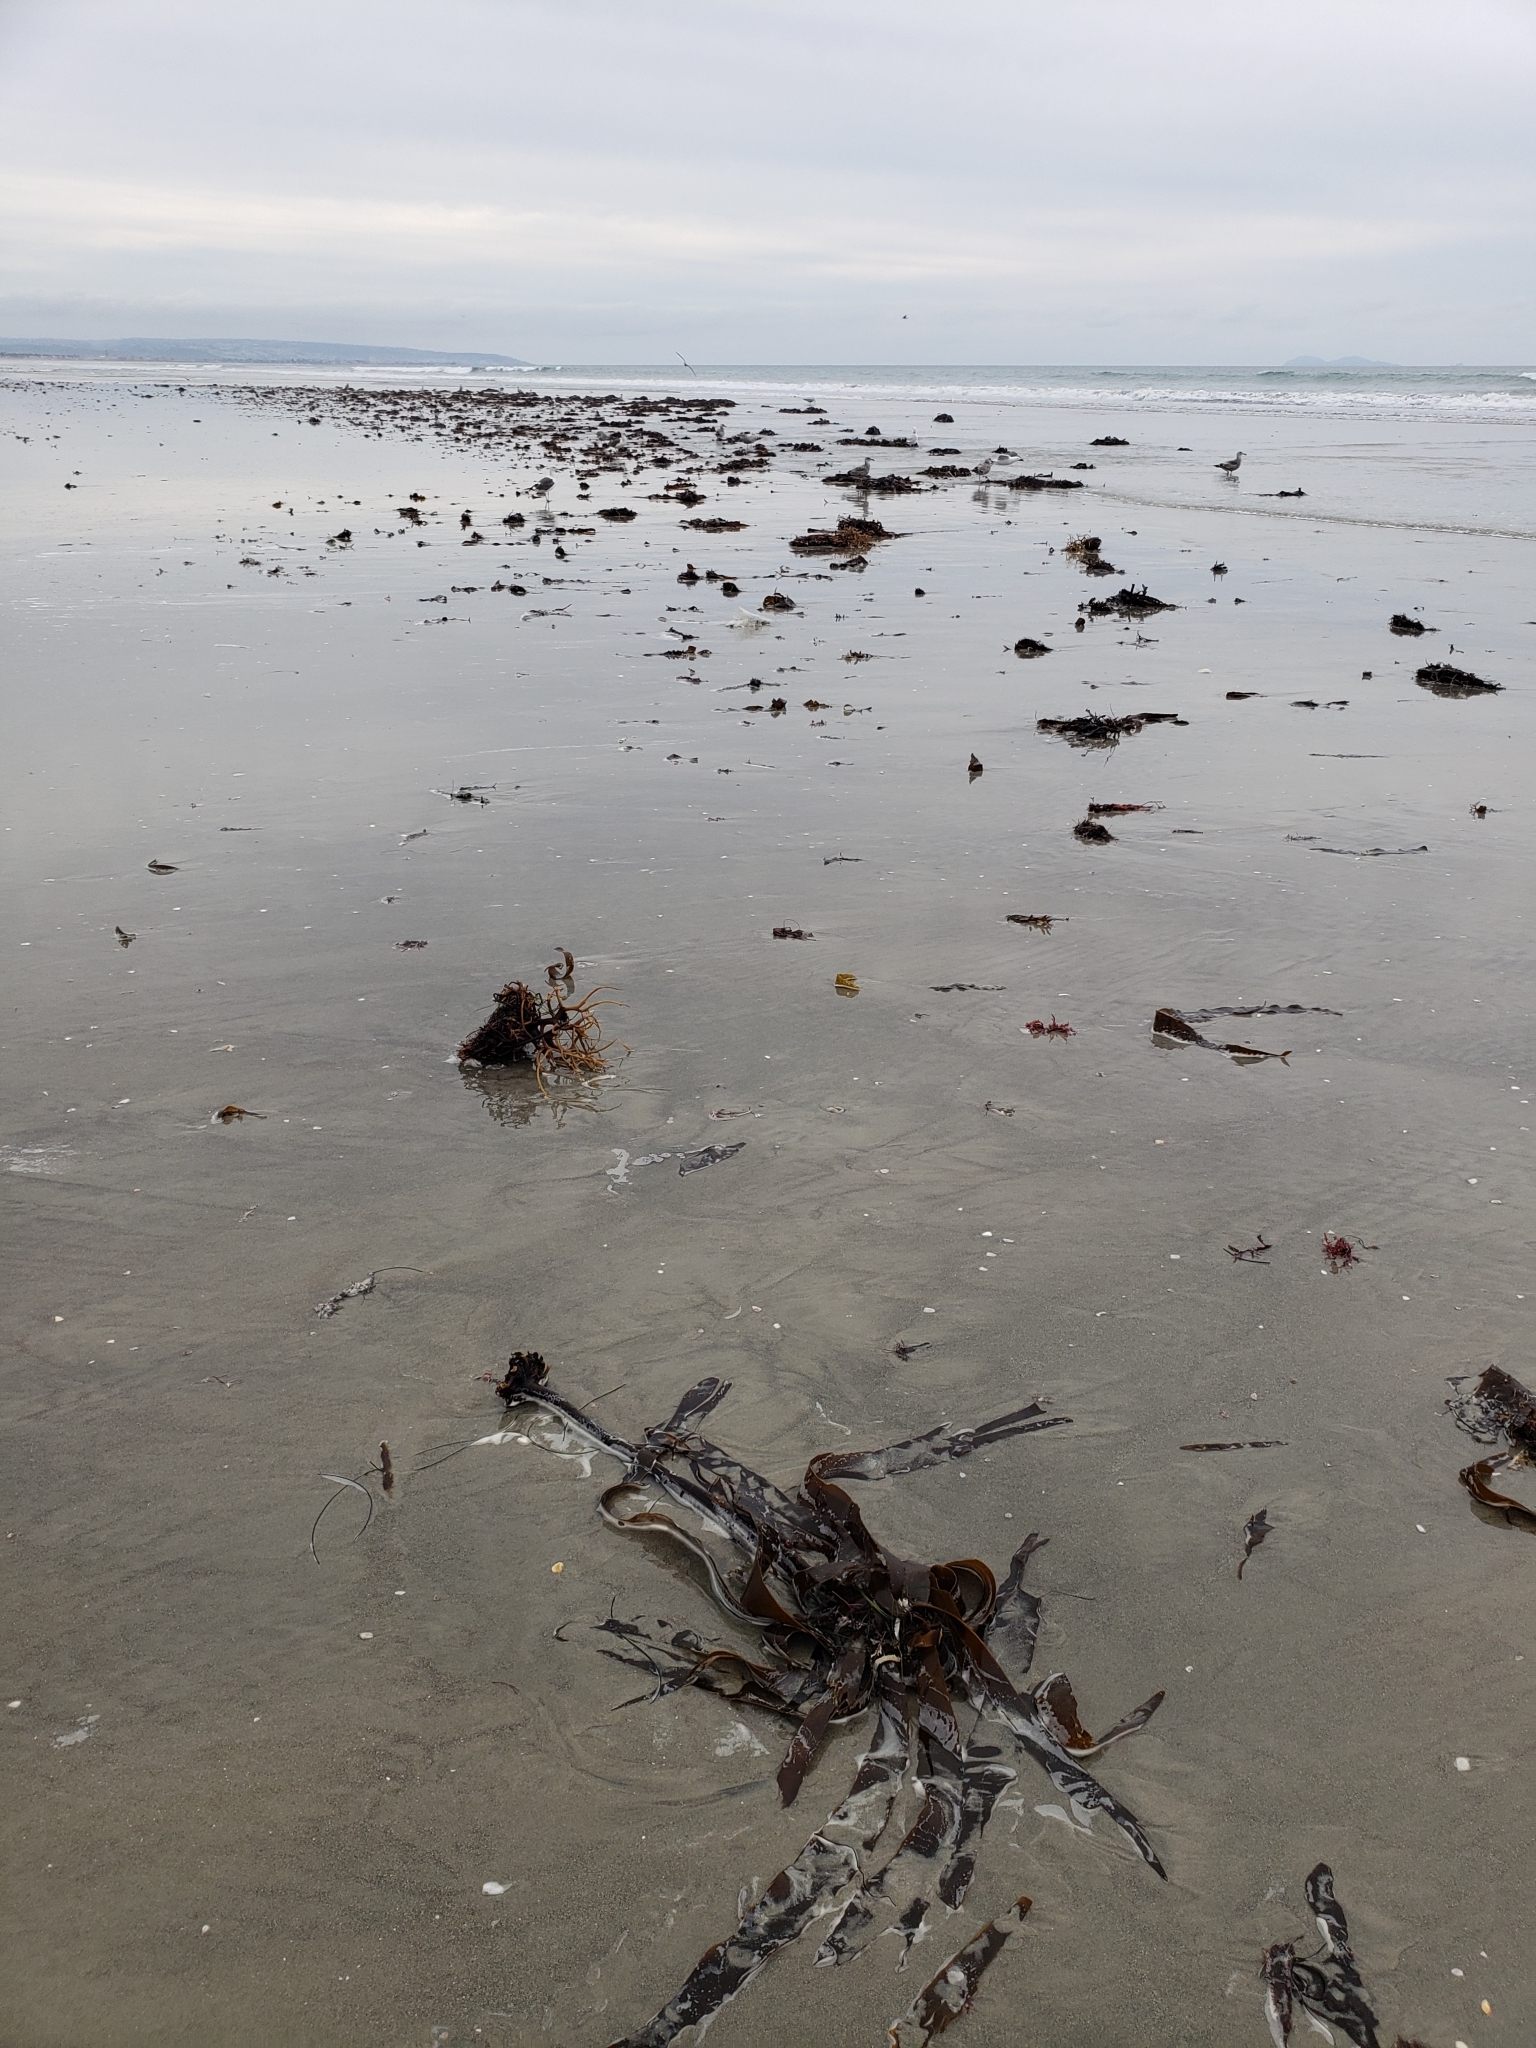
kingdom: Chromista
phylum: Ochrophyta
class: Phaeophyceae
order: Laminariales
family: Alariaceae
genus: Pterygophora
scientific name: Pterygophora californica
